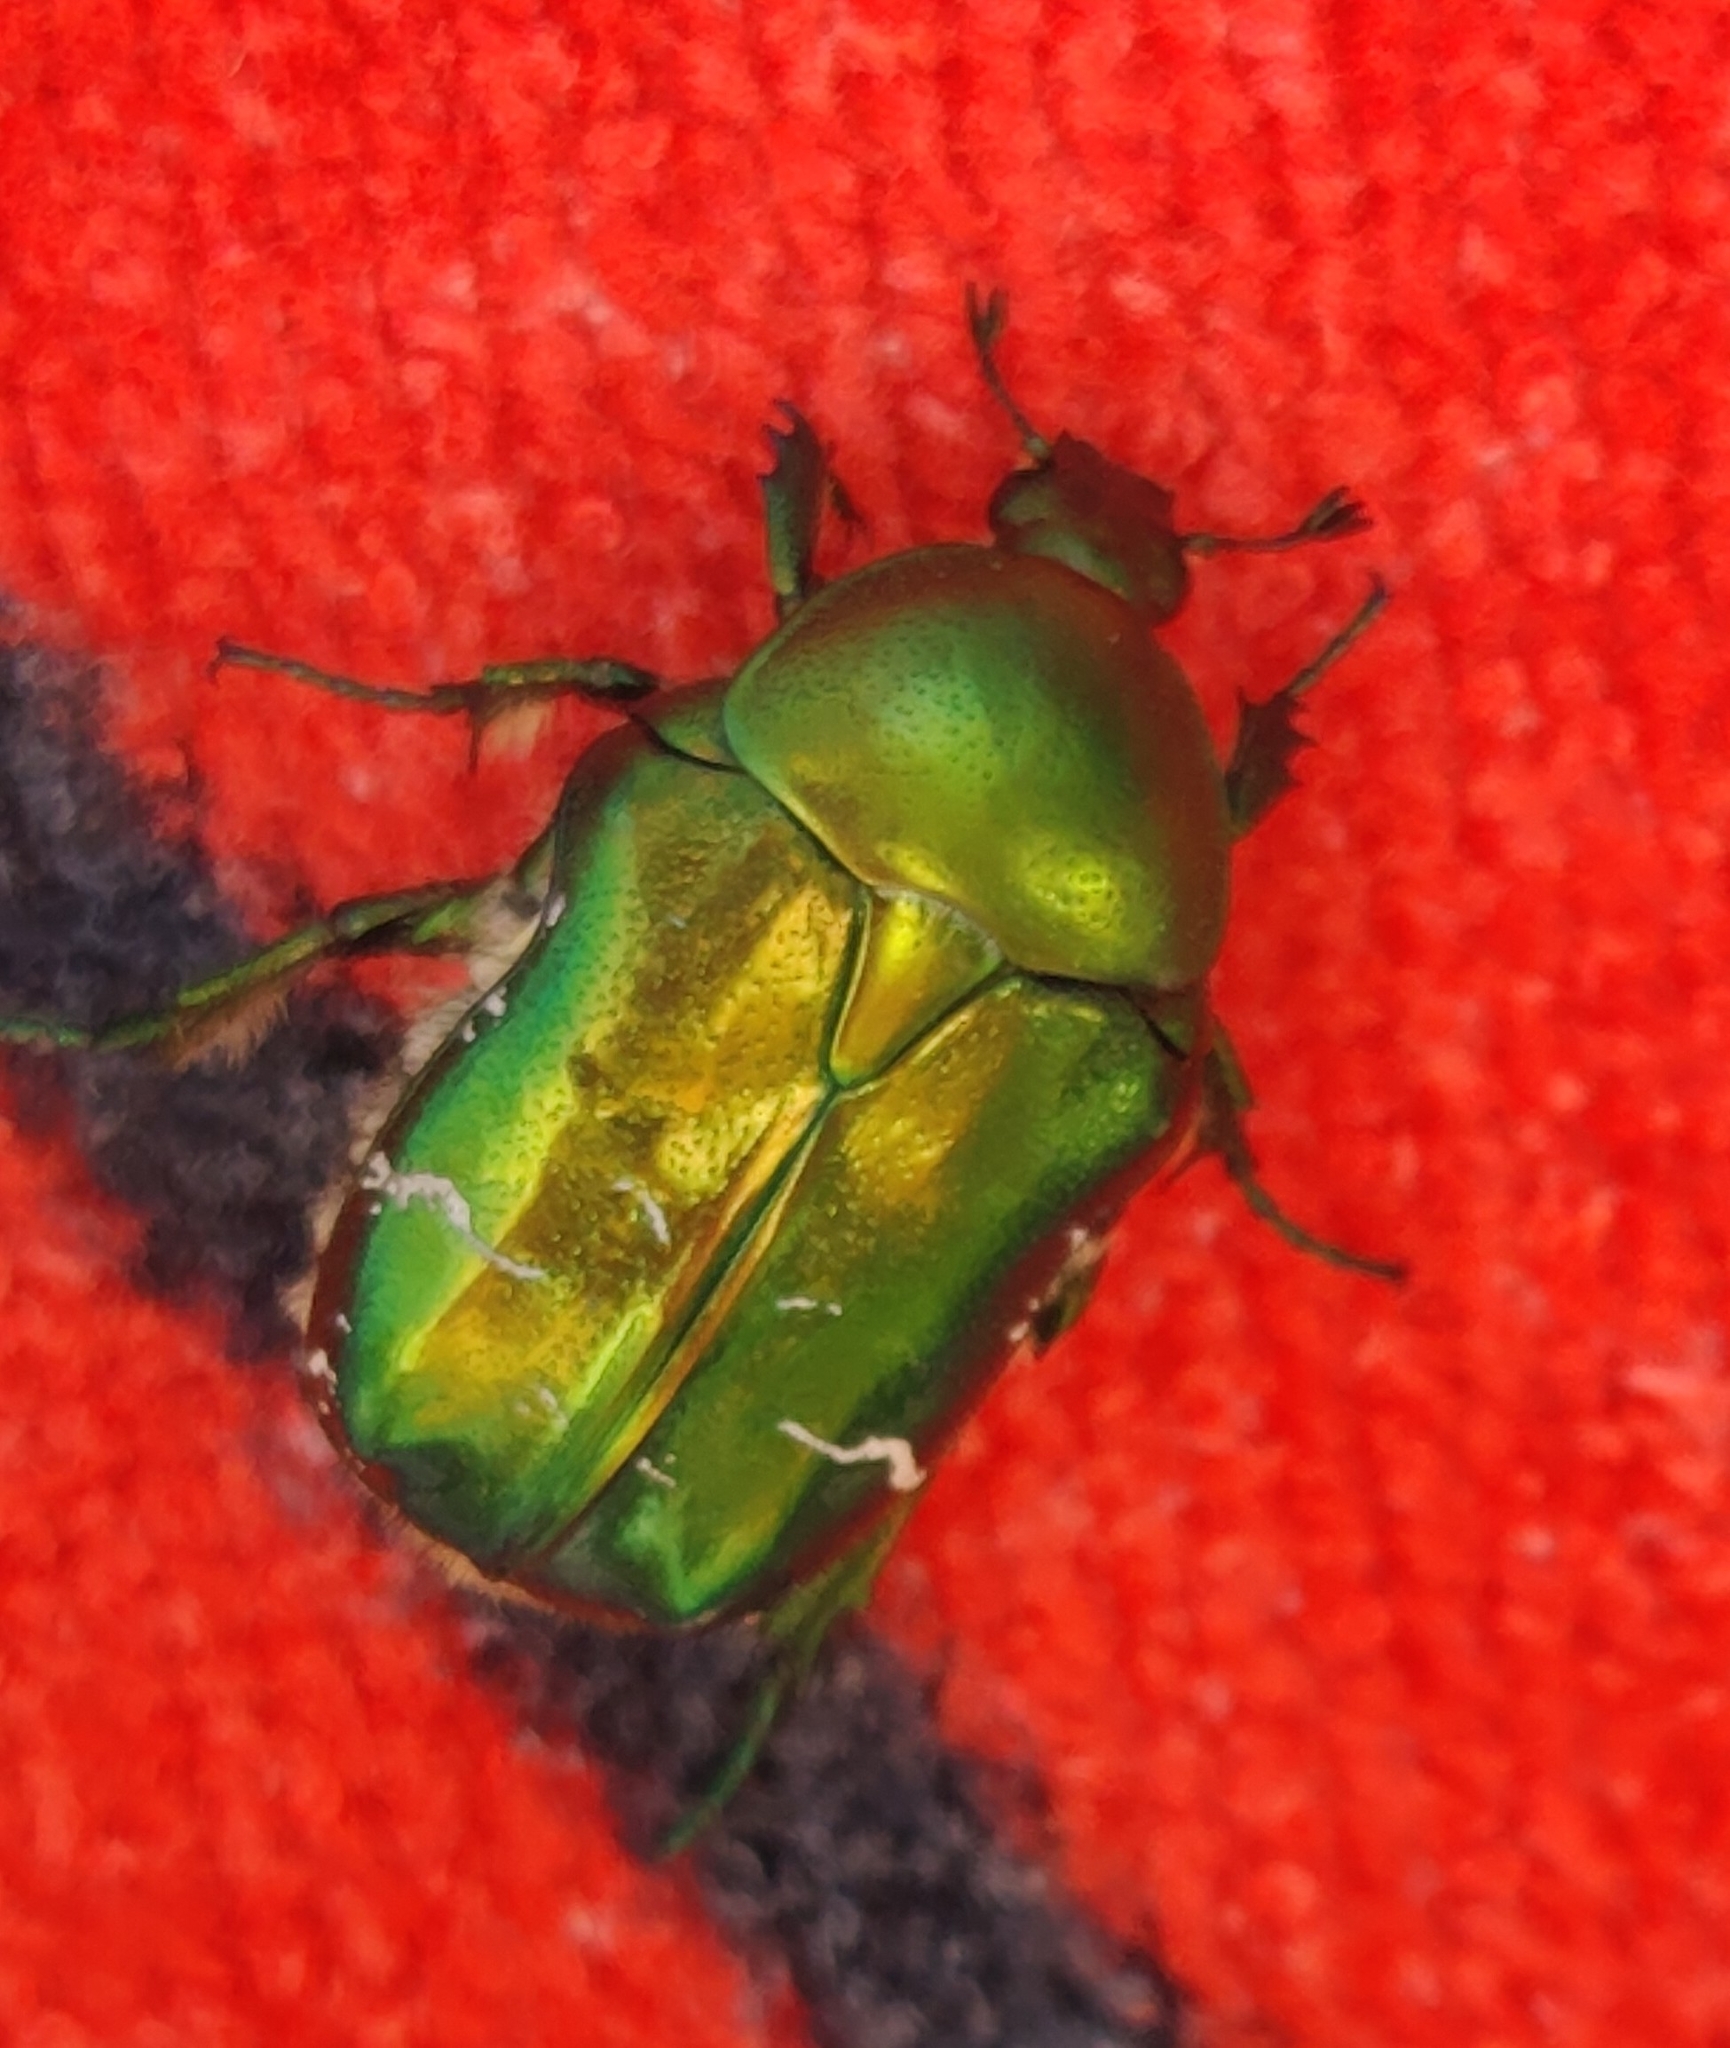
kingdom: Animalia
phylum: Arthropoda
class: Insecta
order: Coleoptera
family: Scarabaeidae
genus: Cetonia
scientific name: Cetonia aurata
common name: Rose chafer
